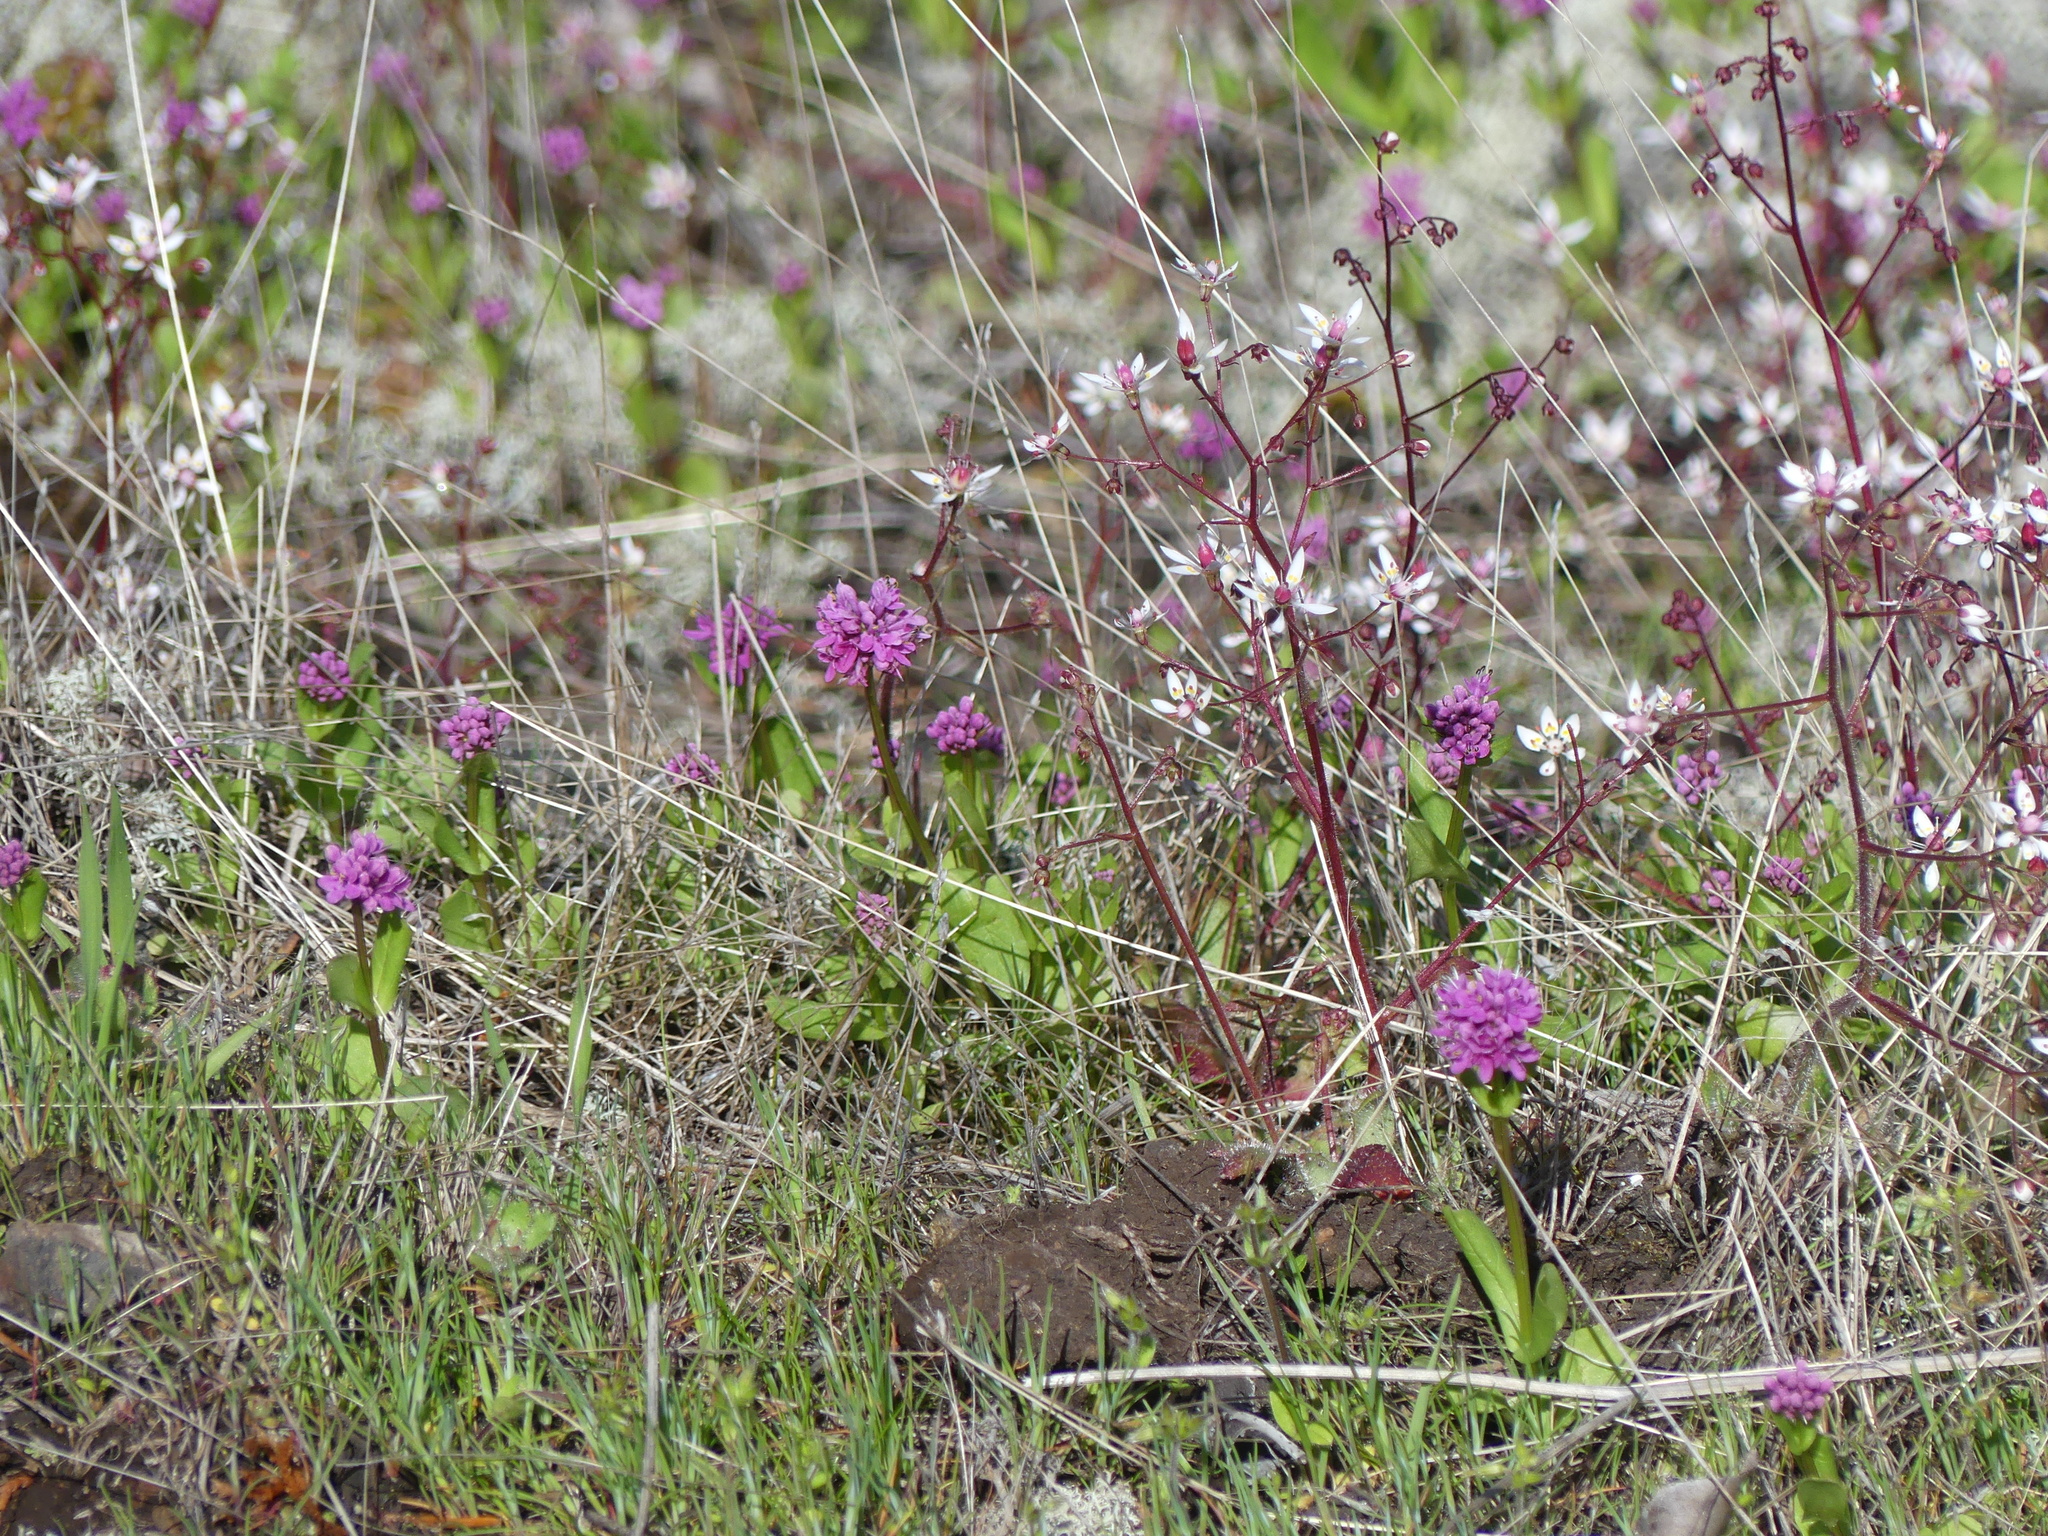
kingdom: Plantae
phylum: Tracheophyta
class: Magnoliopsida
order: Dipsacales
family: Caprifoliaceae
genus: Plectritis
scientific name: Plectritis congesta
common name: Pink plectritis
